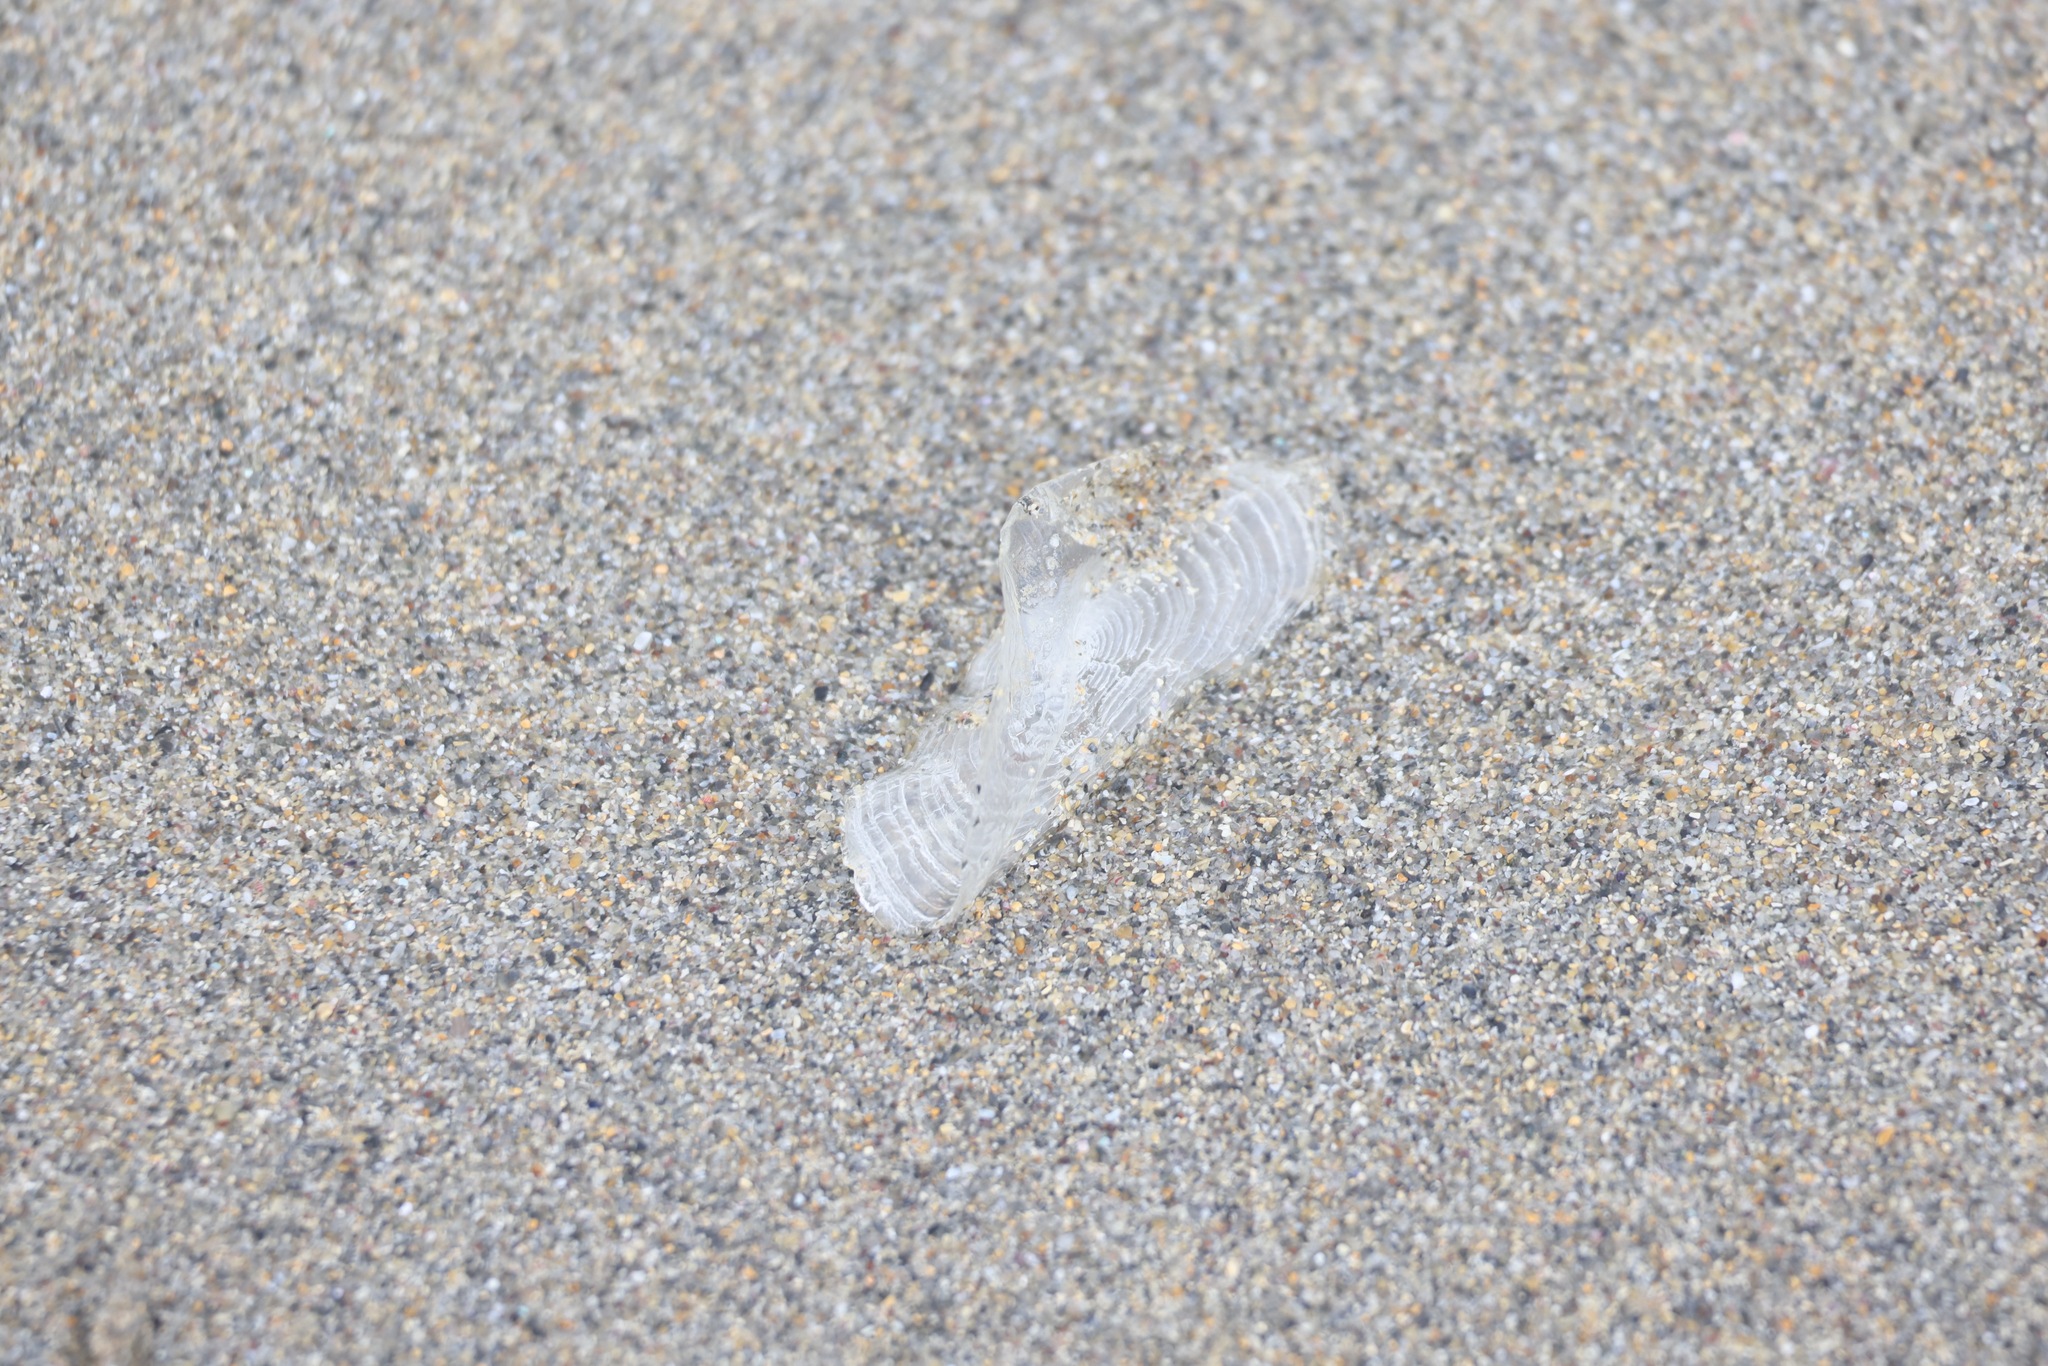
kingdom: Animalia
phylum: Cnidaria
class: Hydrozoa
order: Anthoathecata
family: Porpitidae
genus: Velella
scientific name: Velella velella
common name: By-the-wind-sailor
